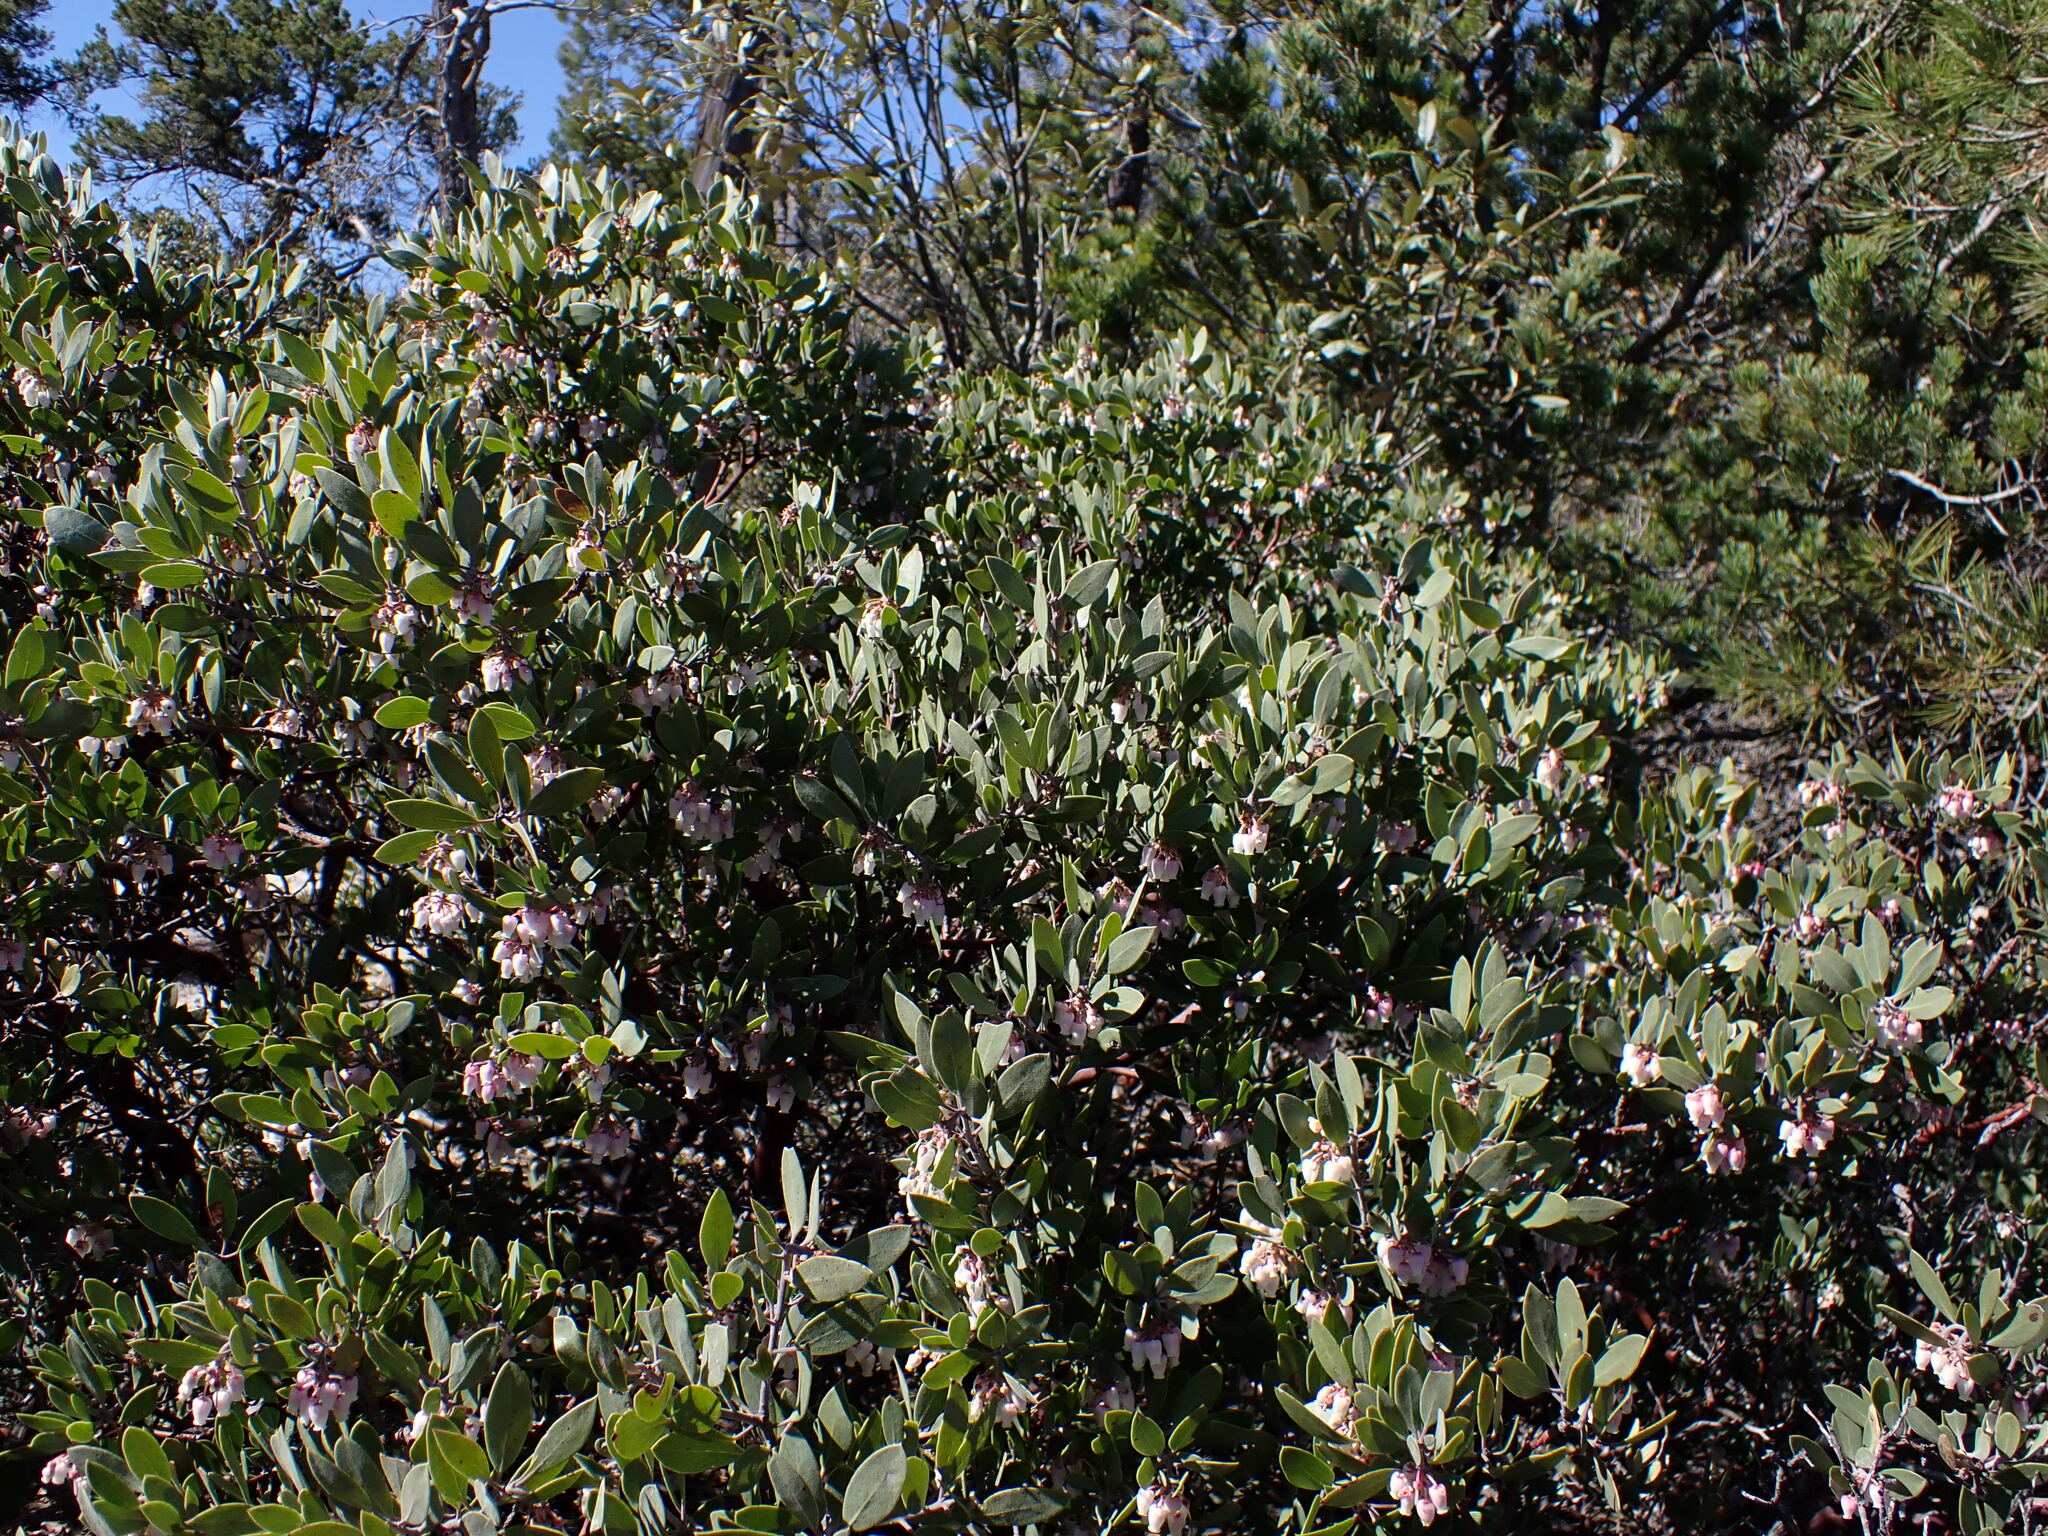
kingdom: Plantae
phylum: Tracheophyta
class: Magnoliopsida
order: Ericales
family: Ericaceae
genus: Arctostaphylos
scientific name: Arctostaphylos pungens
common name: Mexican manzanita
